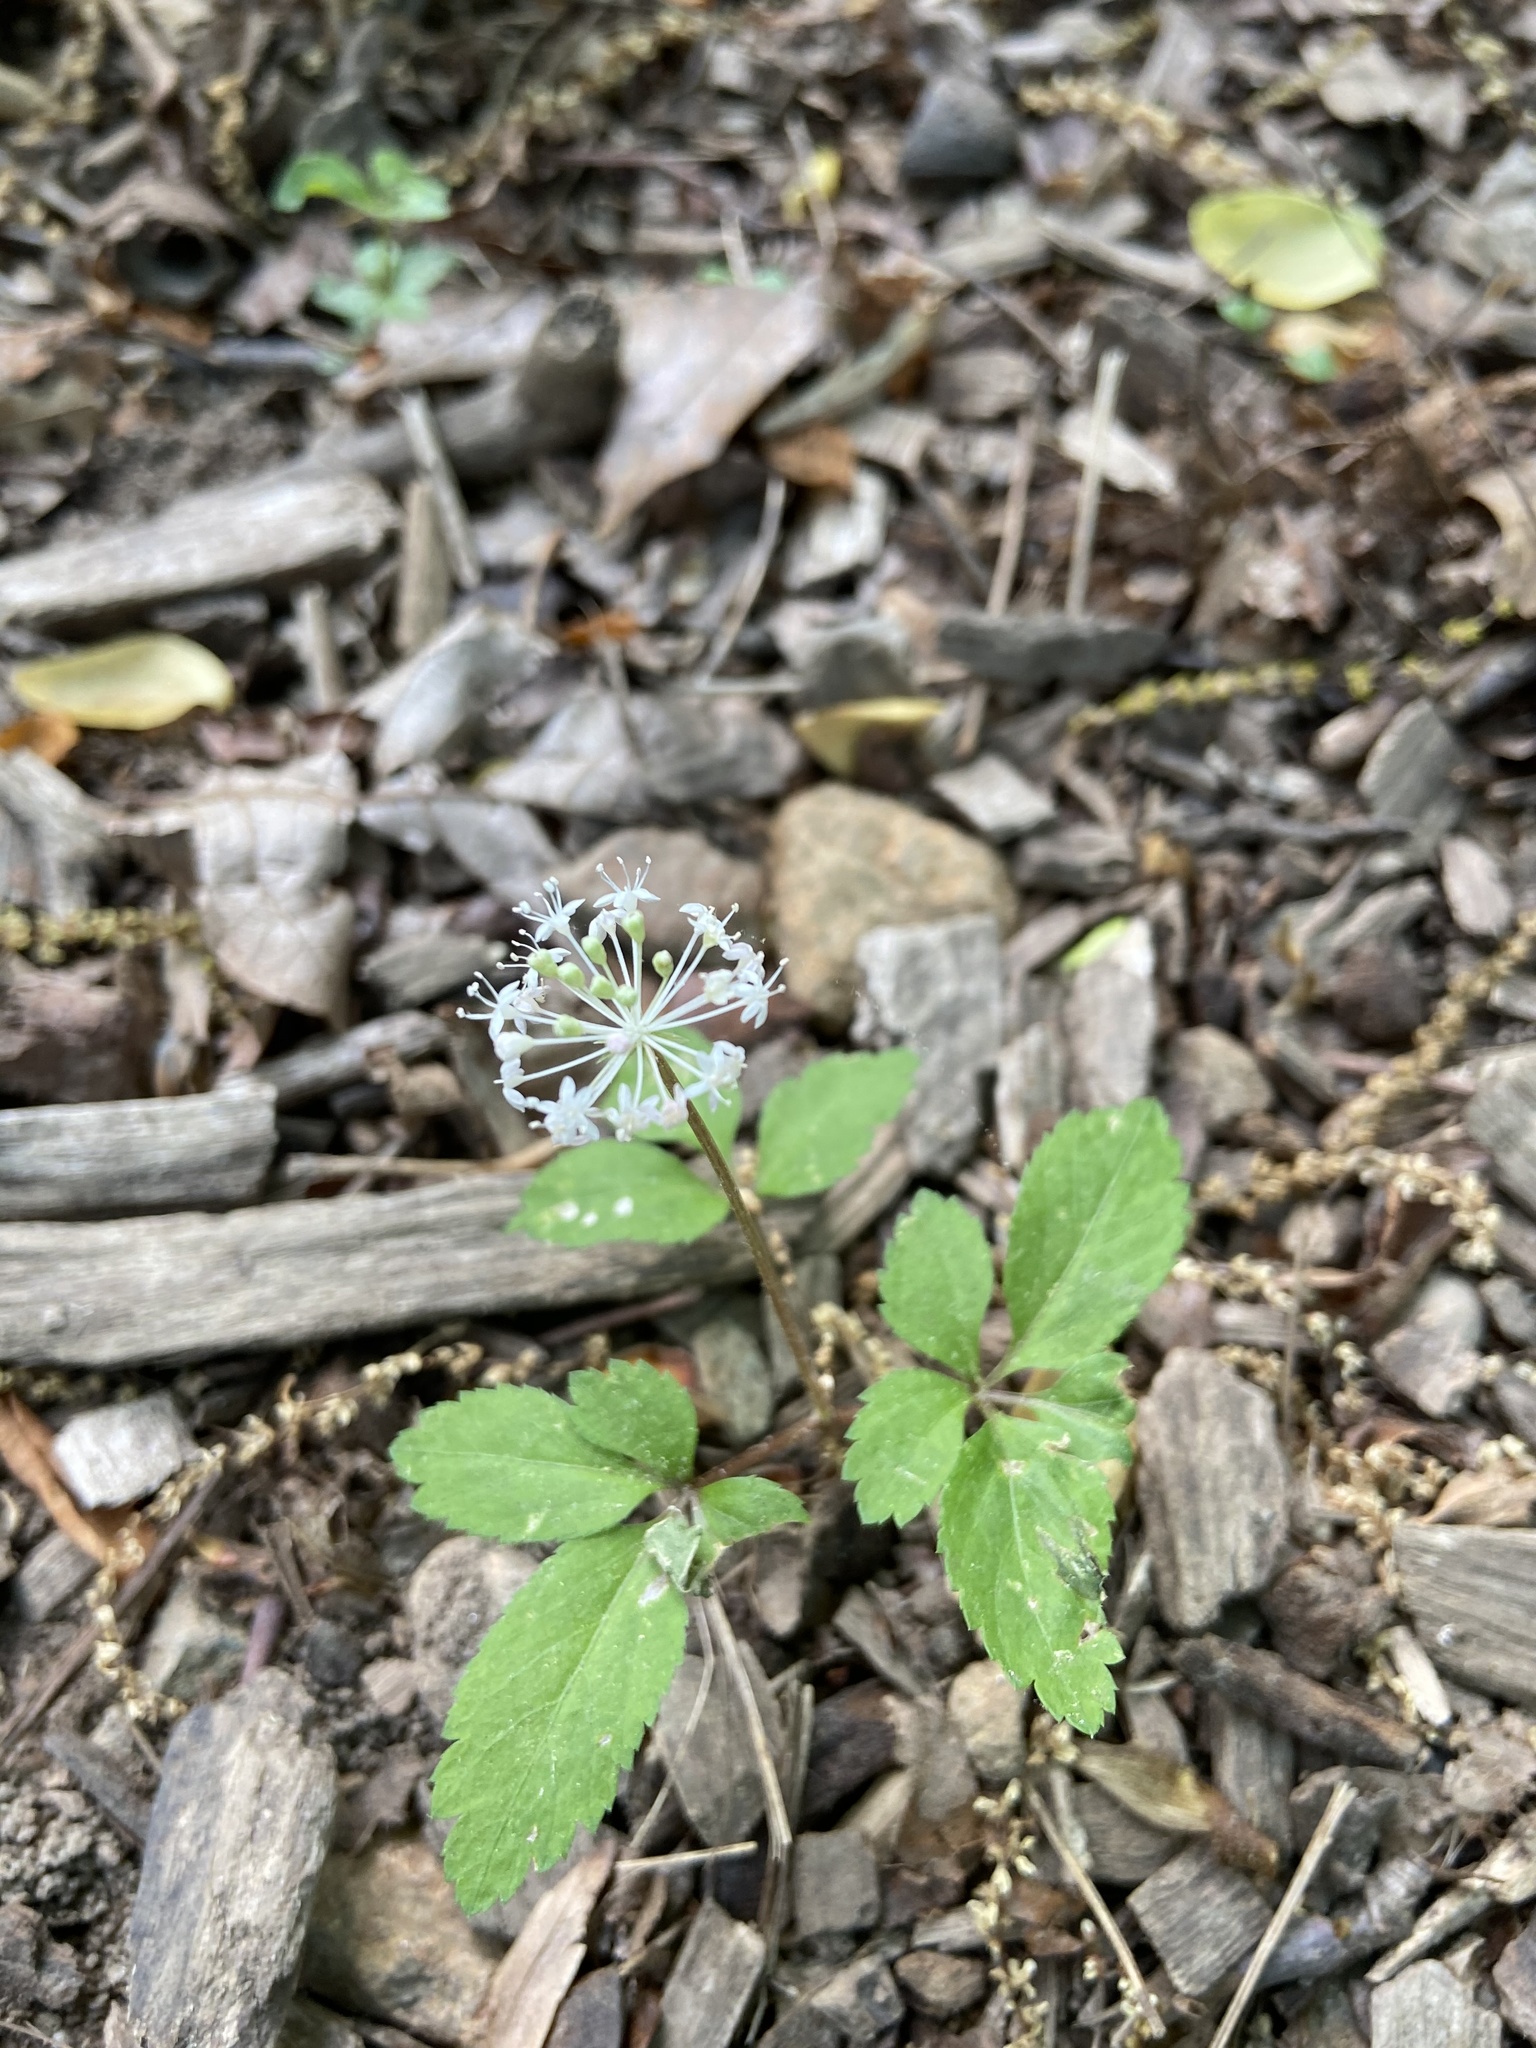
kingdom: Plantae
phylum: Tracheophyta
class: Magnoliopsida
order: Apiales
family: Araliaceae
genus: Panax
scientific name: Panax trifolius
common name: Dwarf ginseng
